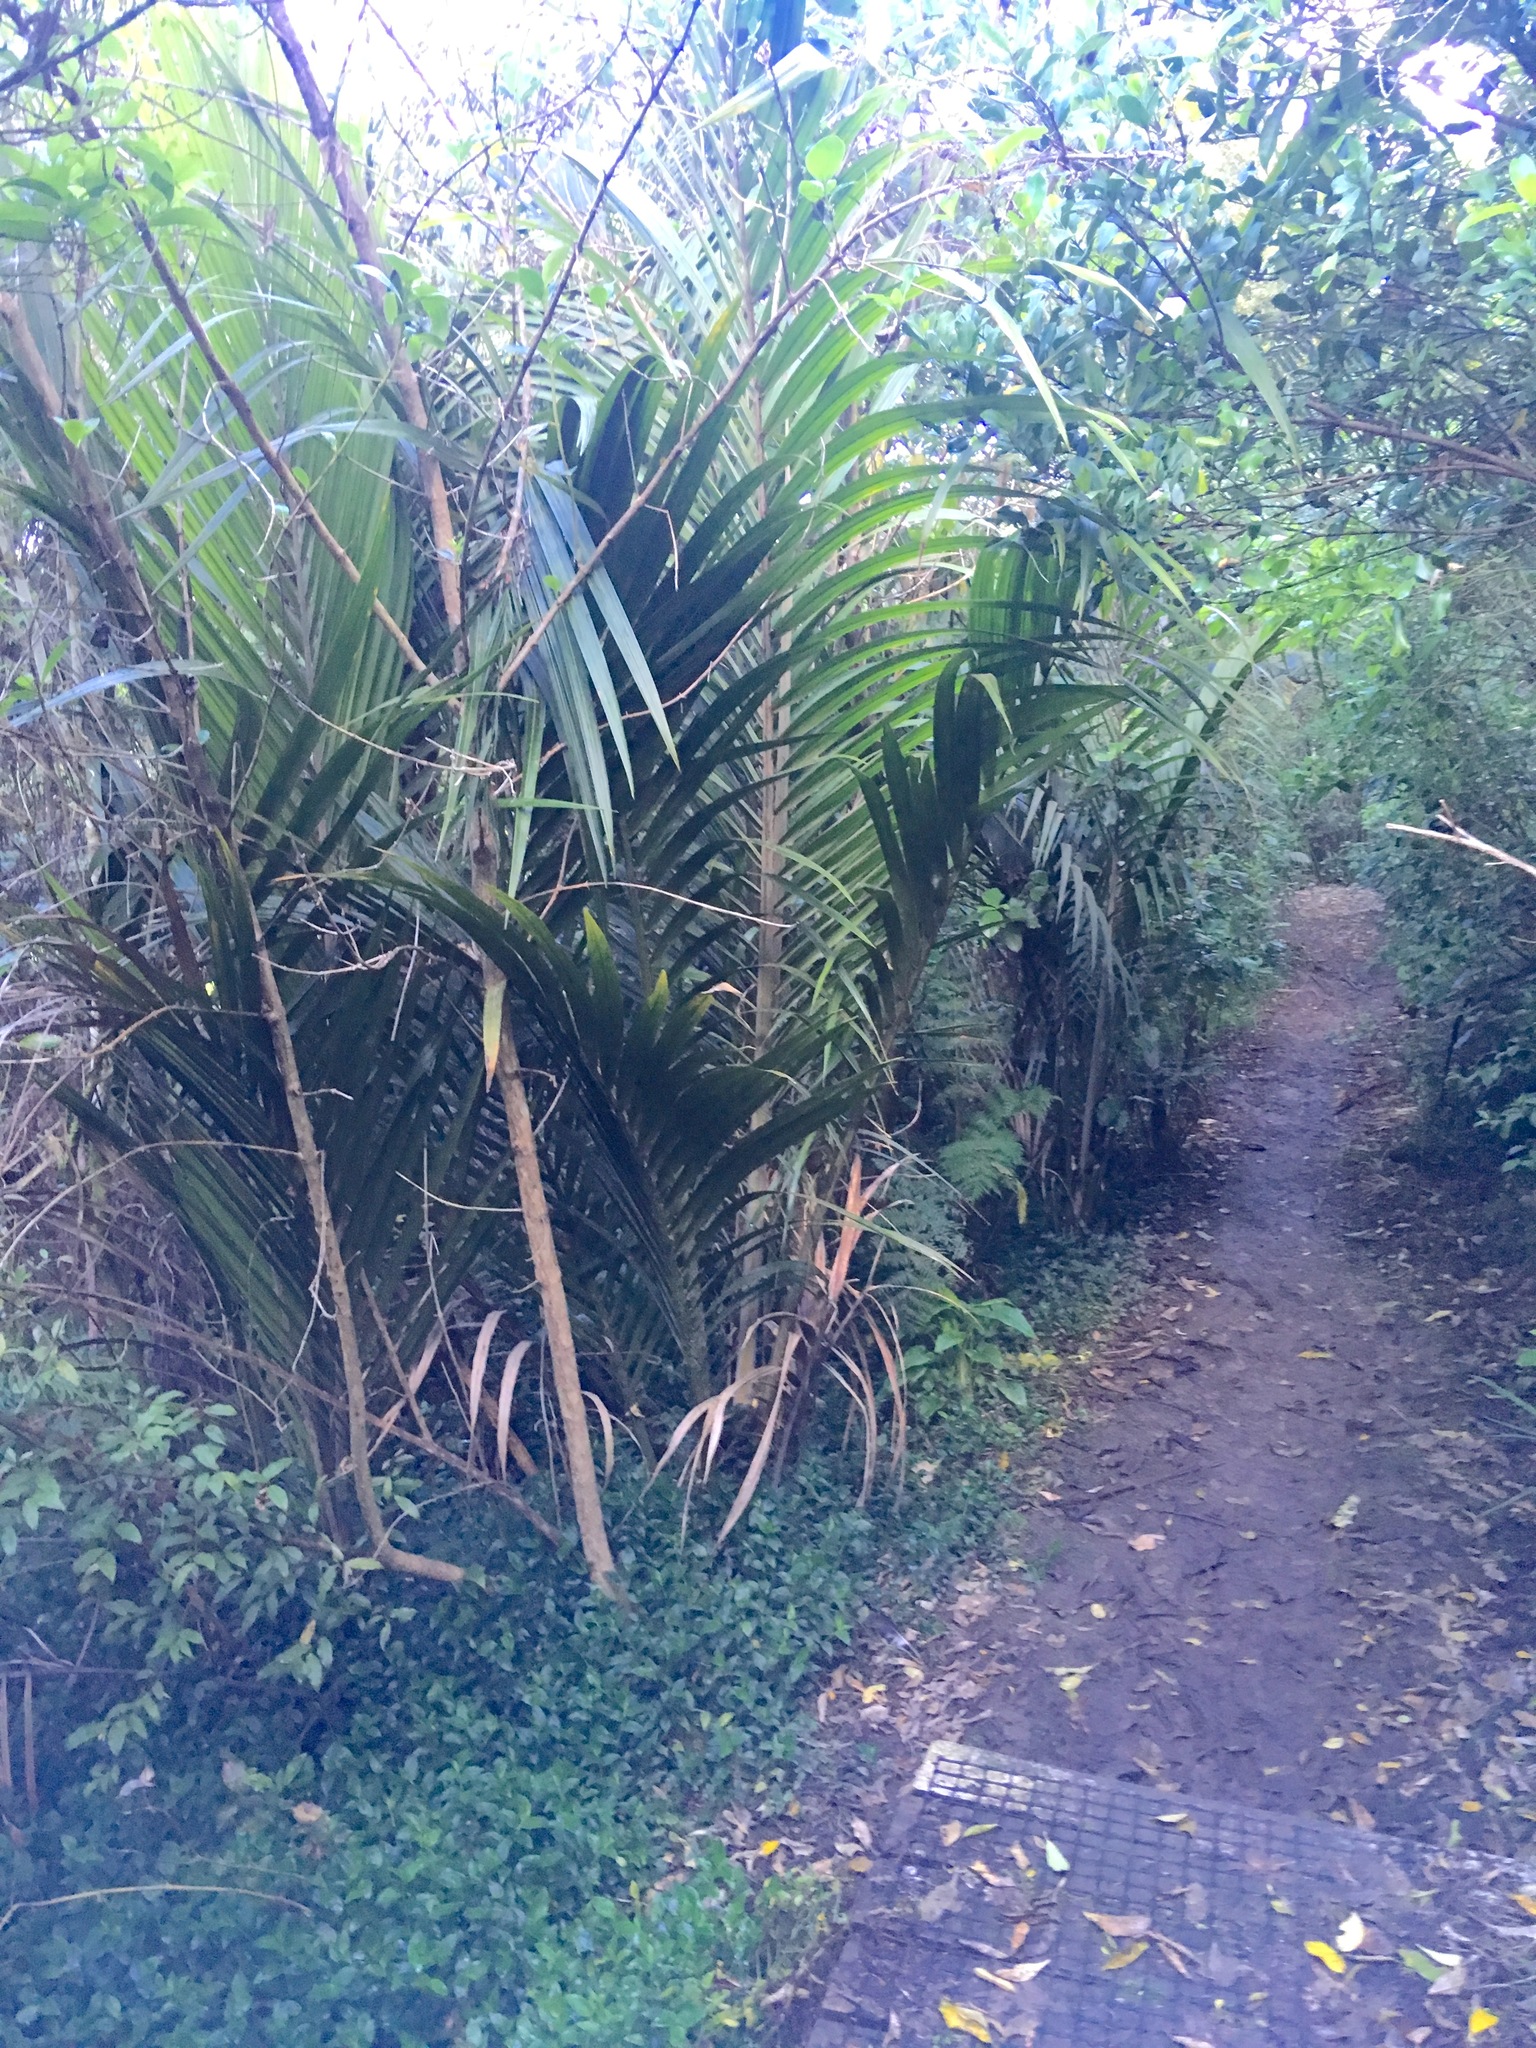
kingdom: Plantae
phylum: Tracheophyta
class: Liliopsida
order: Commelinales
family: Commelinaceae
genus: Tradescantia
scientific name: Tradescantia fluminensis
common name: Wandering-jew
